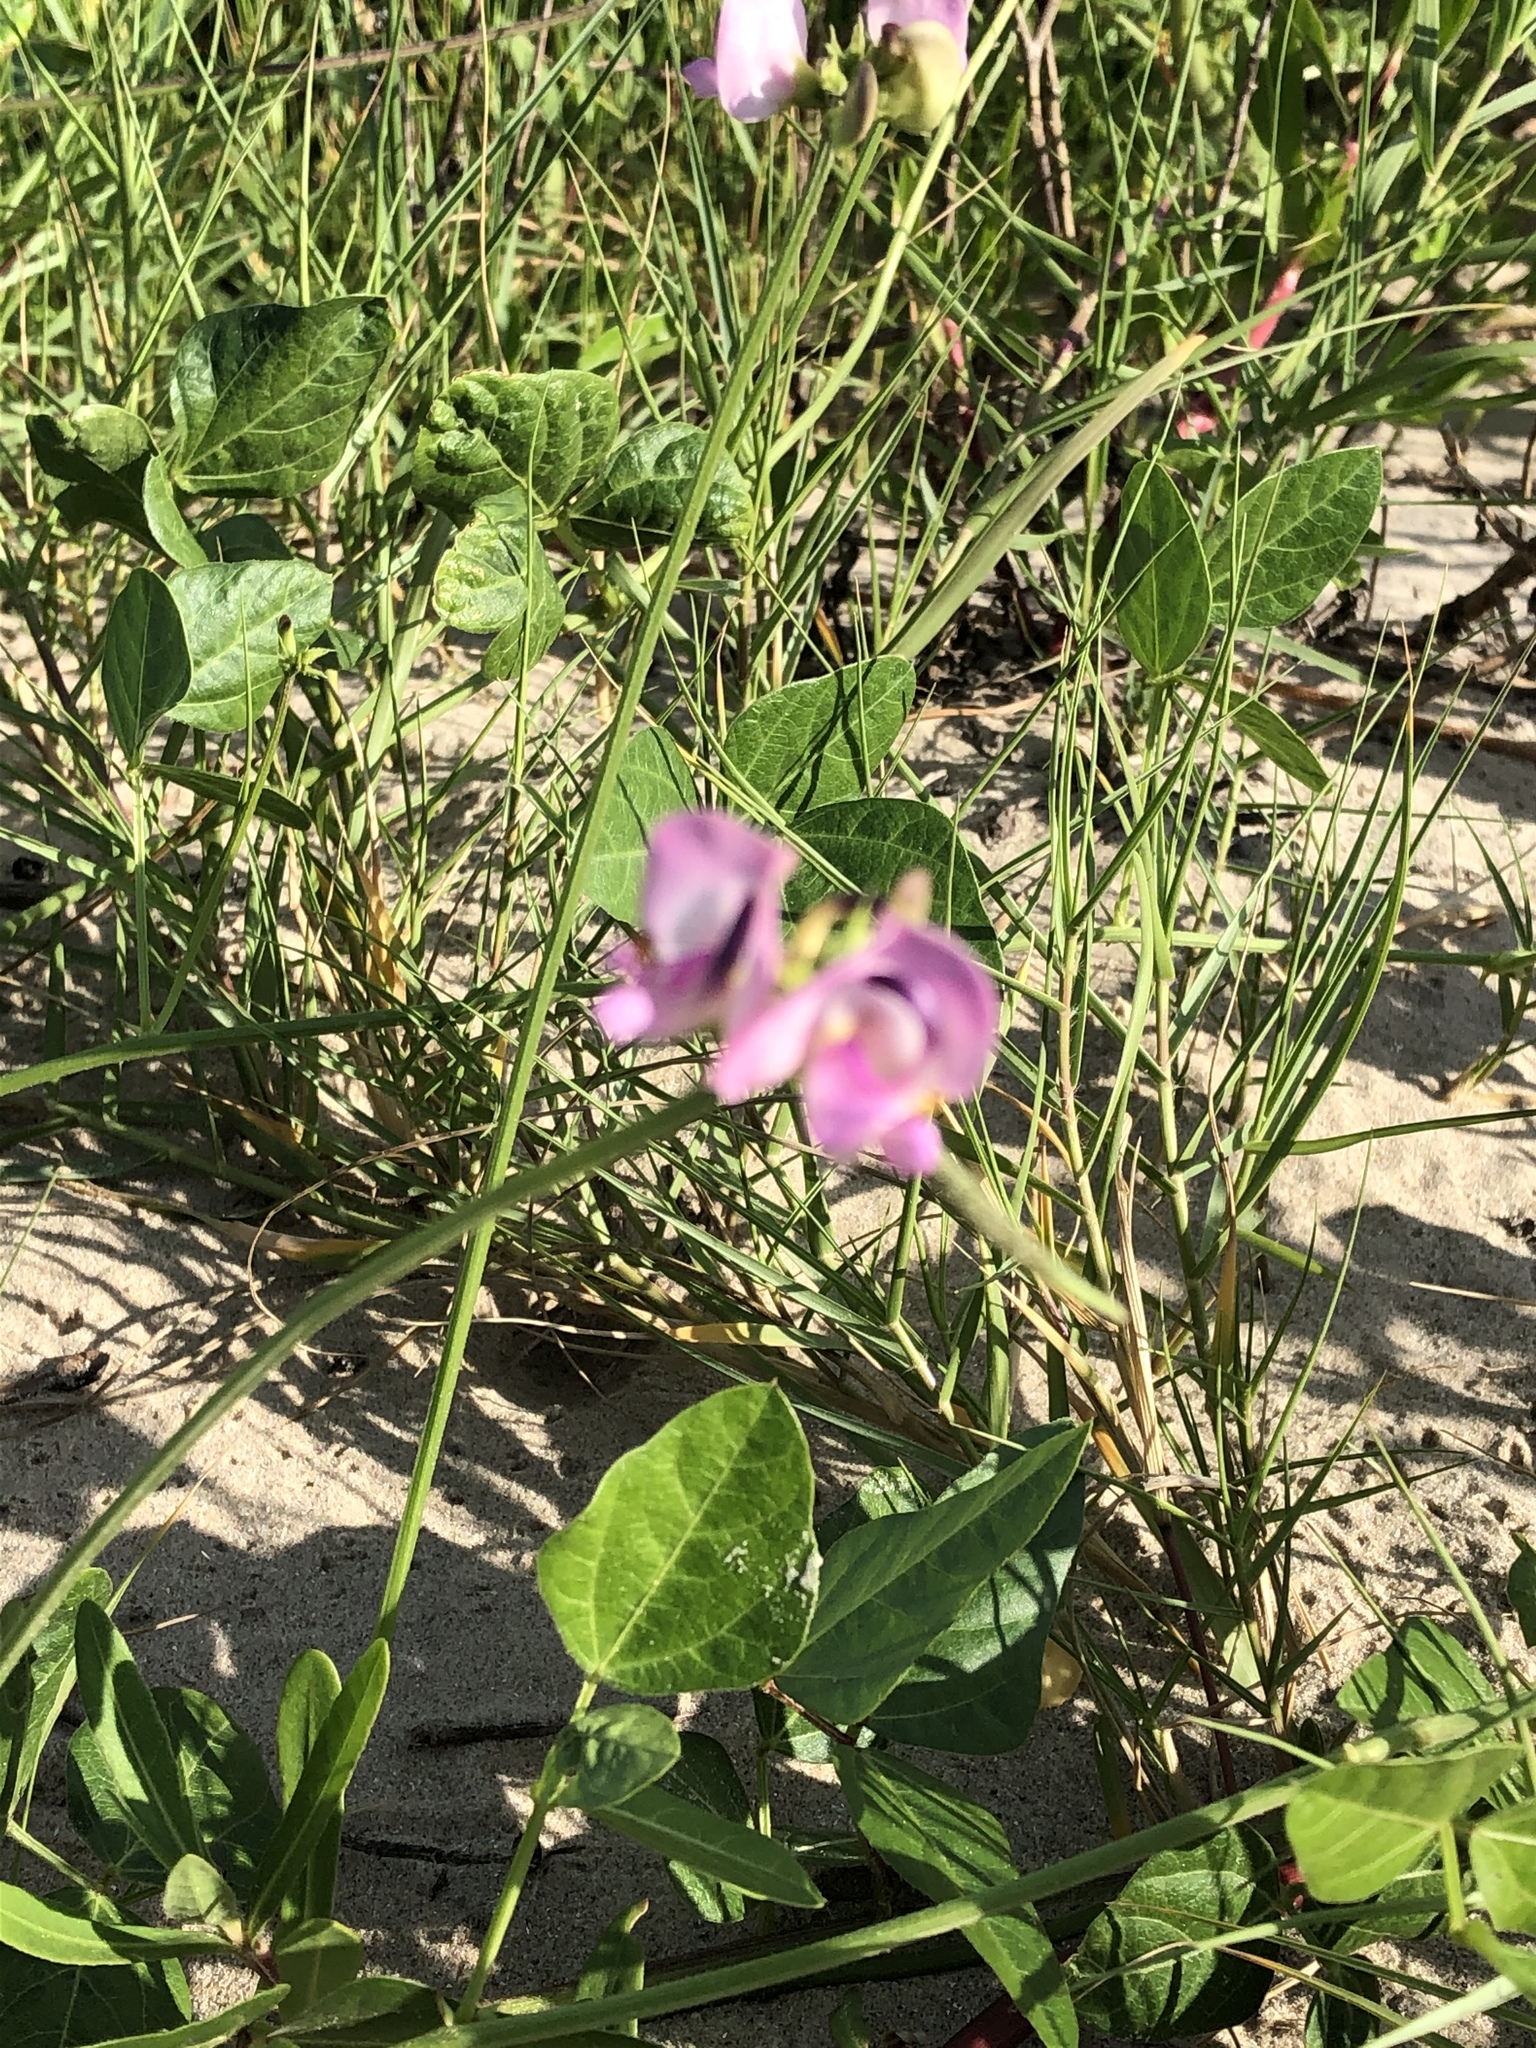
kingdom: Plantae
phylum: Tracheophyta
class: Magnoliopsida
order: Fabales
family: Fabaceae
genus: Strophostyles
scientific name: Strophostyles helvola
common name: Trailing wild bean
